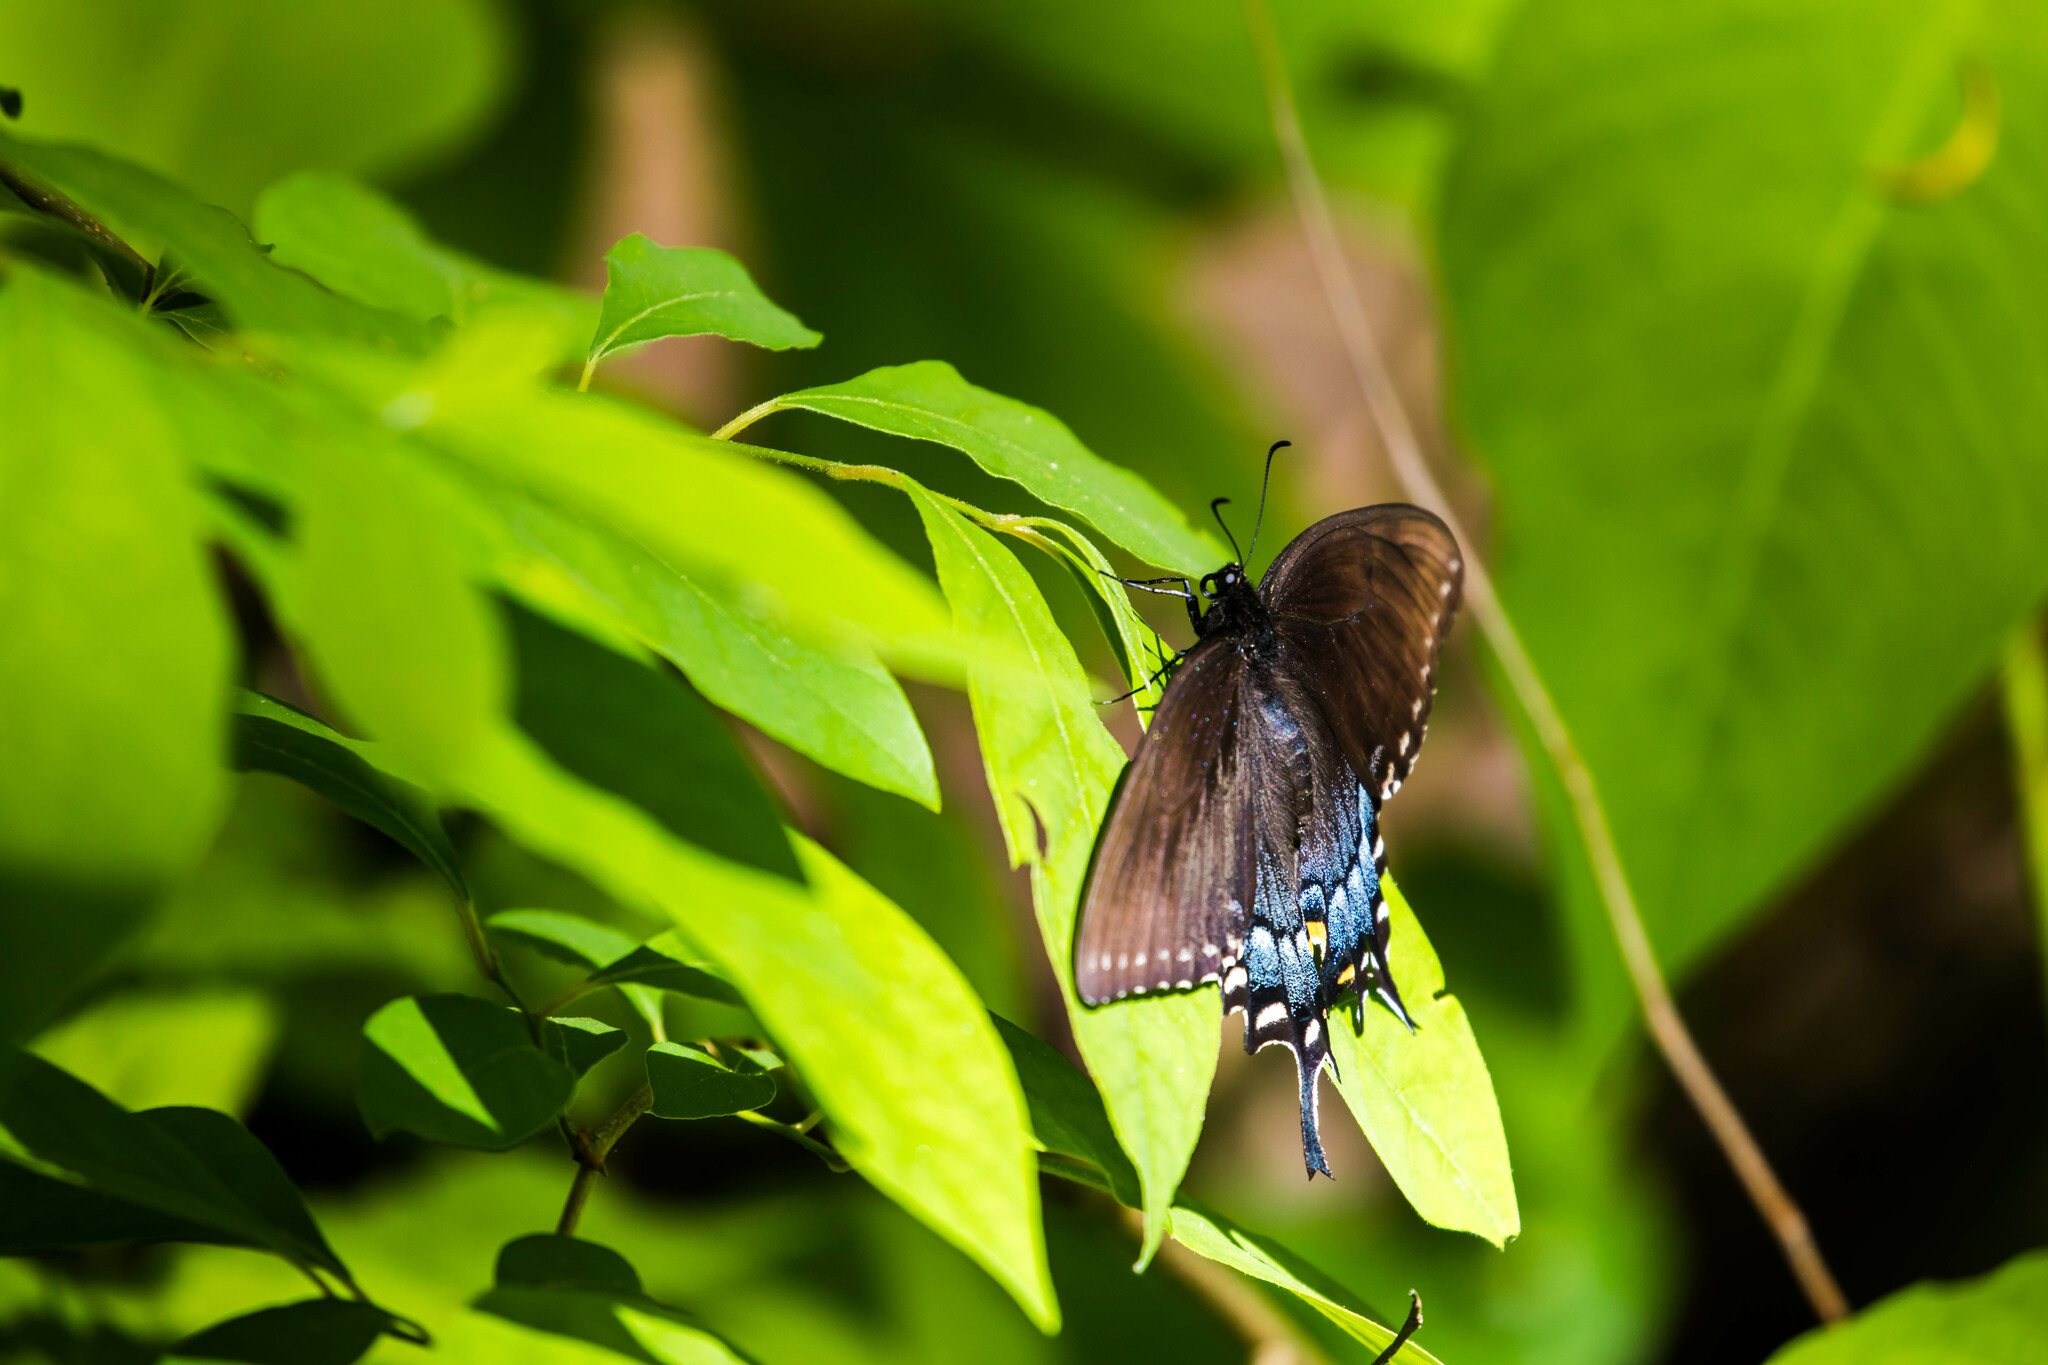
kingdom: Animalia
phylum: Arthropoda
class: Insecta
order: Lepidoptera
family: Papilionidae
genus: Papilio
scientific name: Papilio glaucus
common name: Tiger swallowtail
